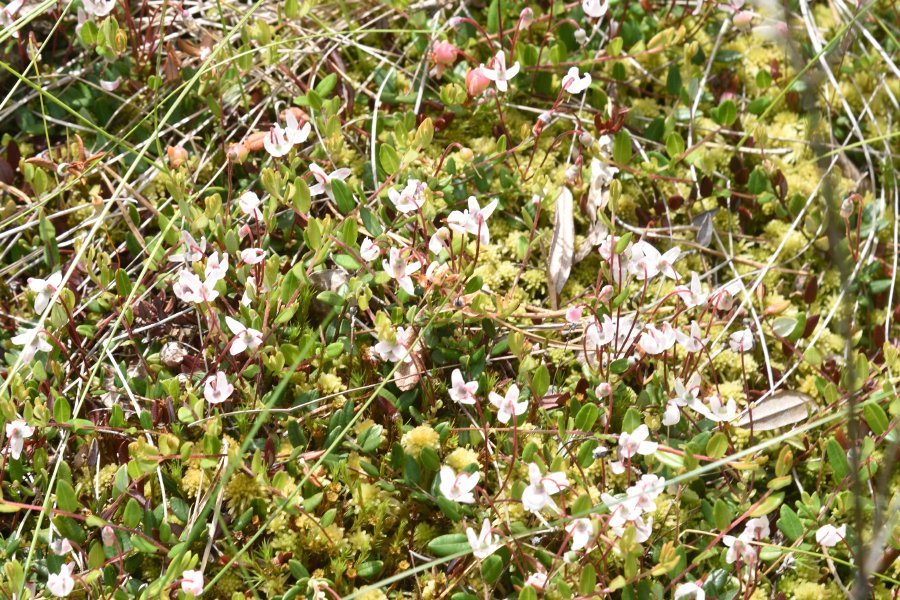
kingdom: Plantae
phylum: Tracheophyta
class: Magnoliopsida
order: Ericales
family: Ericaceae
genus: Vaccinium
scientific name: Vaccinium oxycoccos
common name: Cranberry
